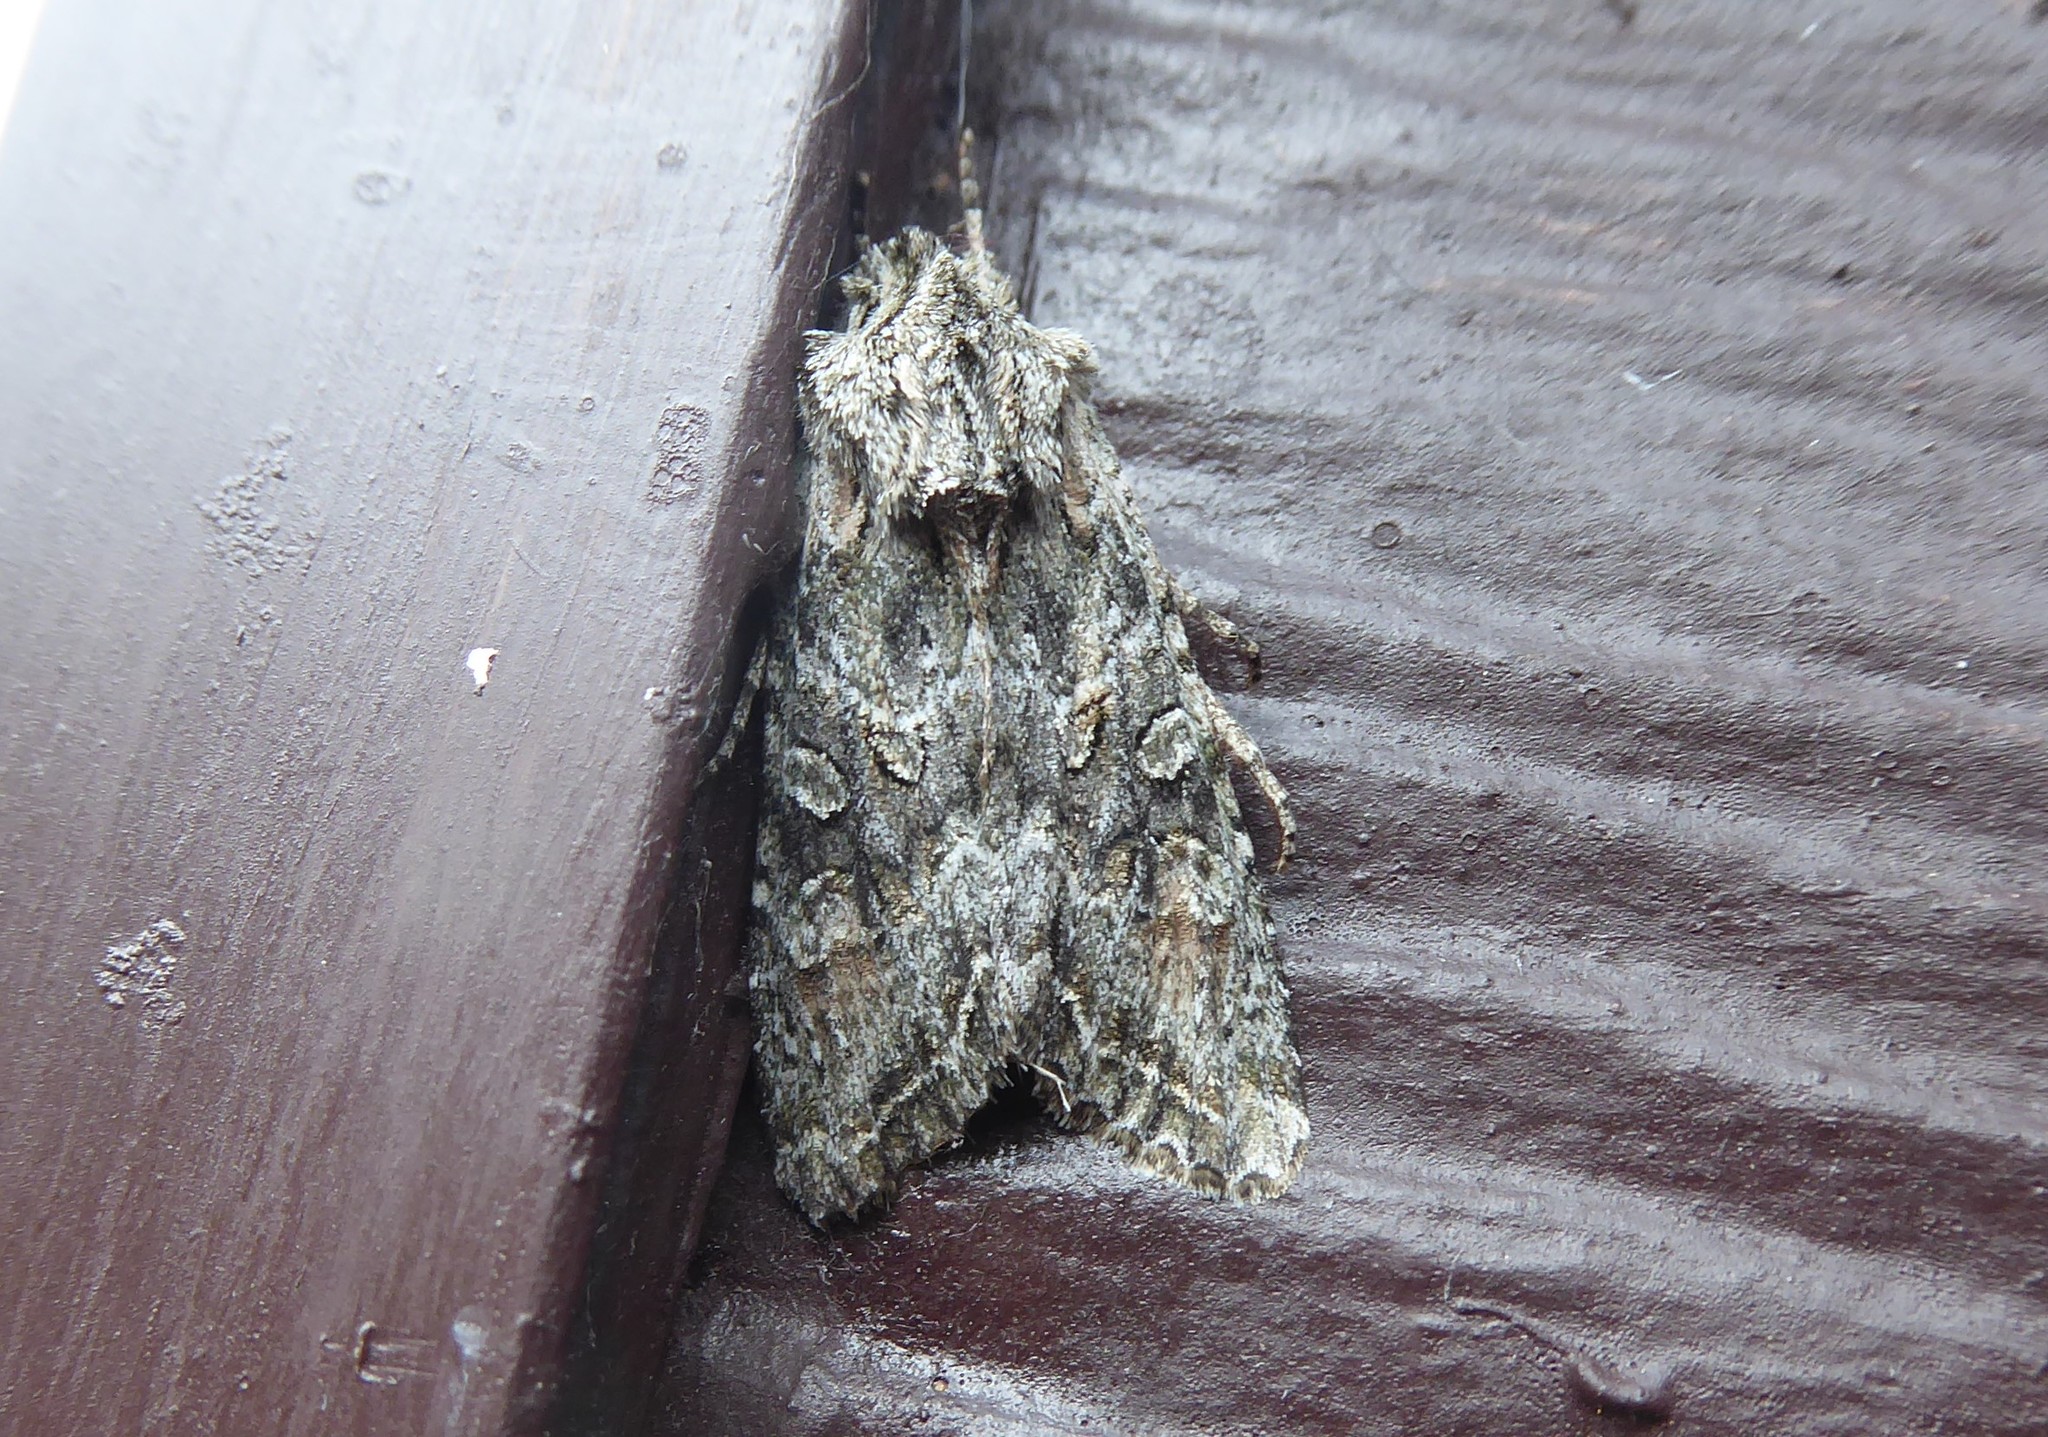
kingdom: Animalia
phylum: Arthropoda
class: Insecta
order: Lepidoptera
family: Noctuidae
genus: Ichneutica
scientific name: Ichneutica mutans
